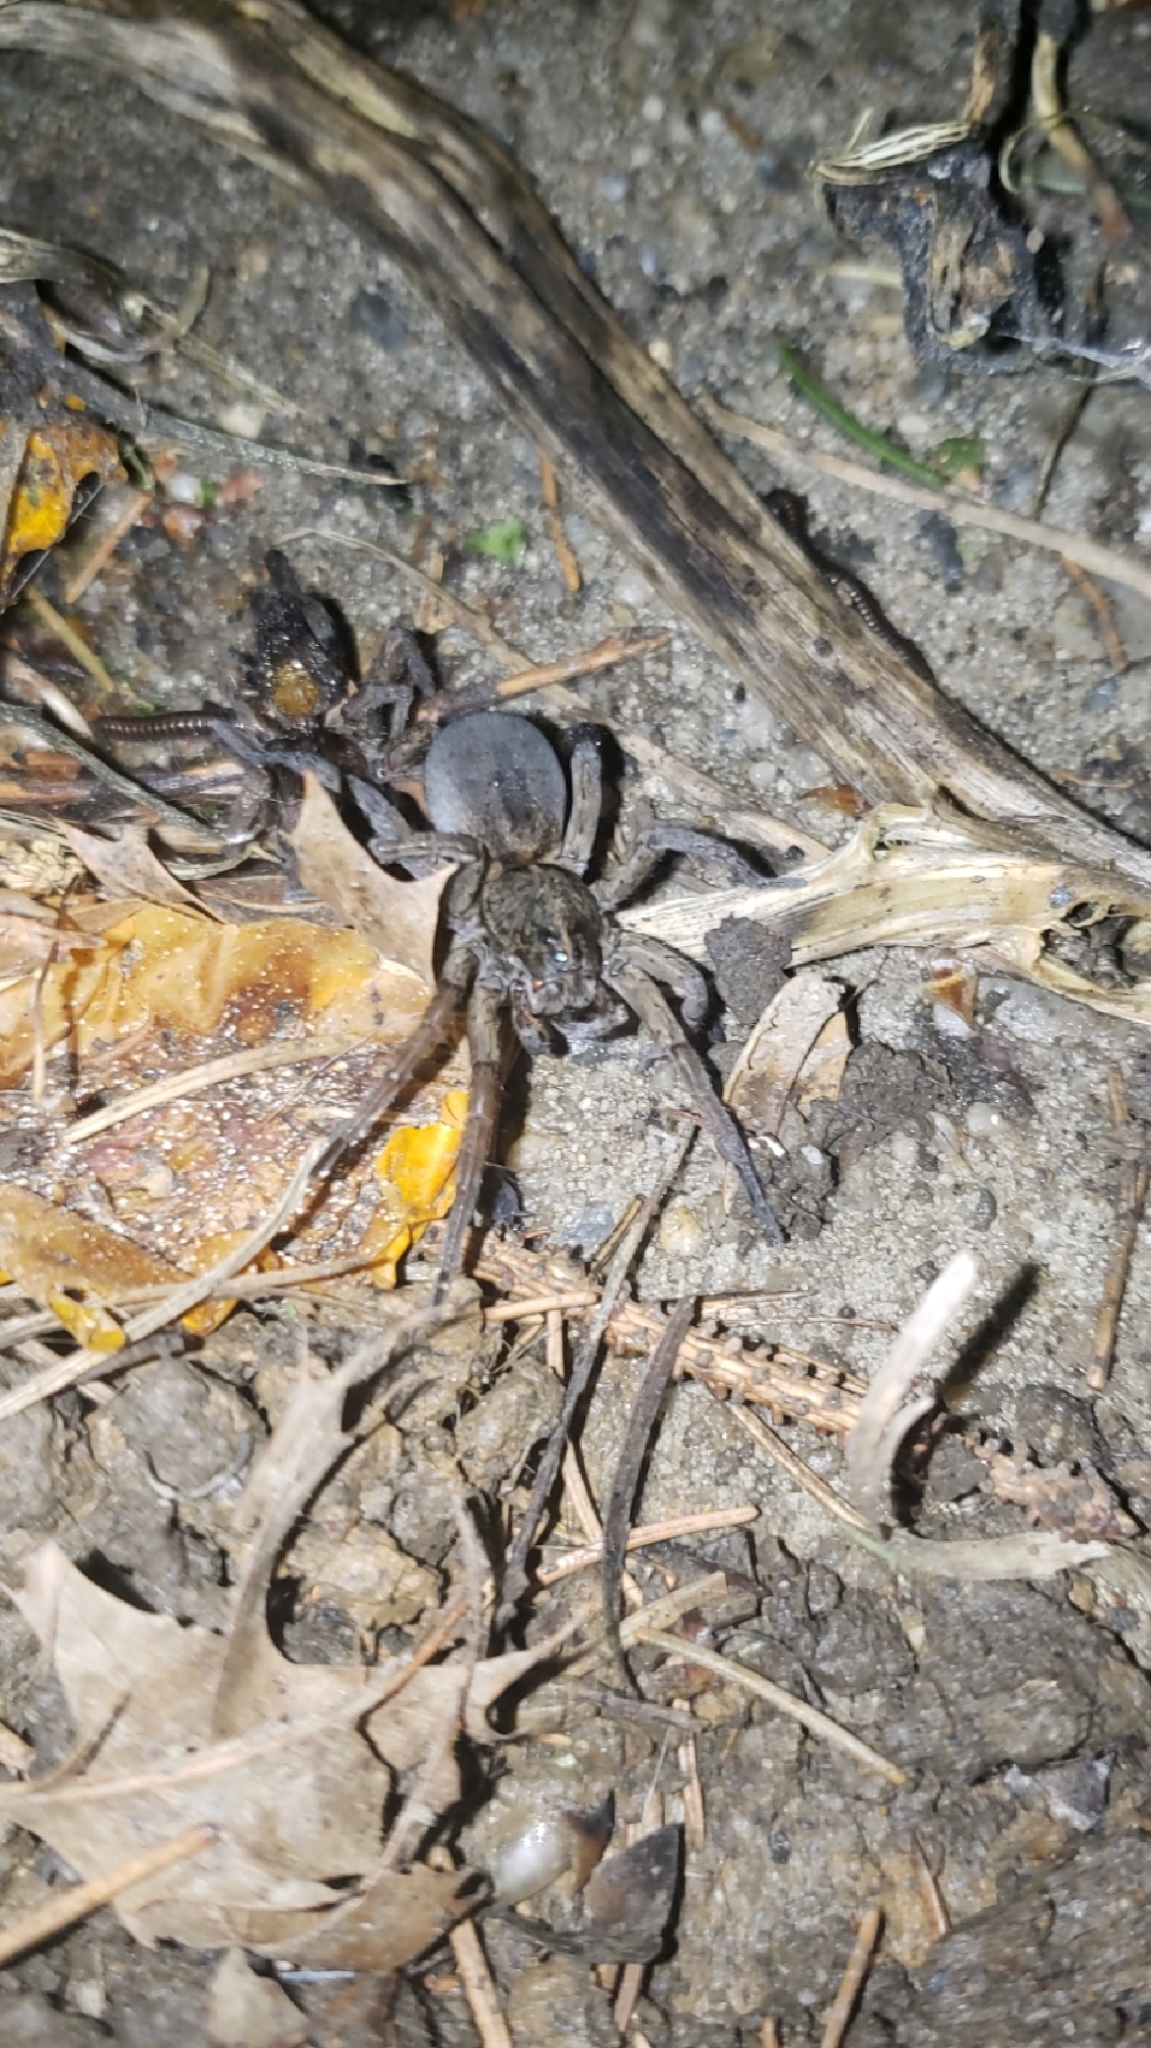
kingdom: Animalia
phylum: Arthropoda
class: Arachnida
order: Araneae
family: Lycosidae
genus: Tigrosa
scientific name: Tigrosa helluo
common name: Wetland giant wolf spider
